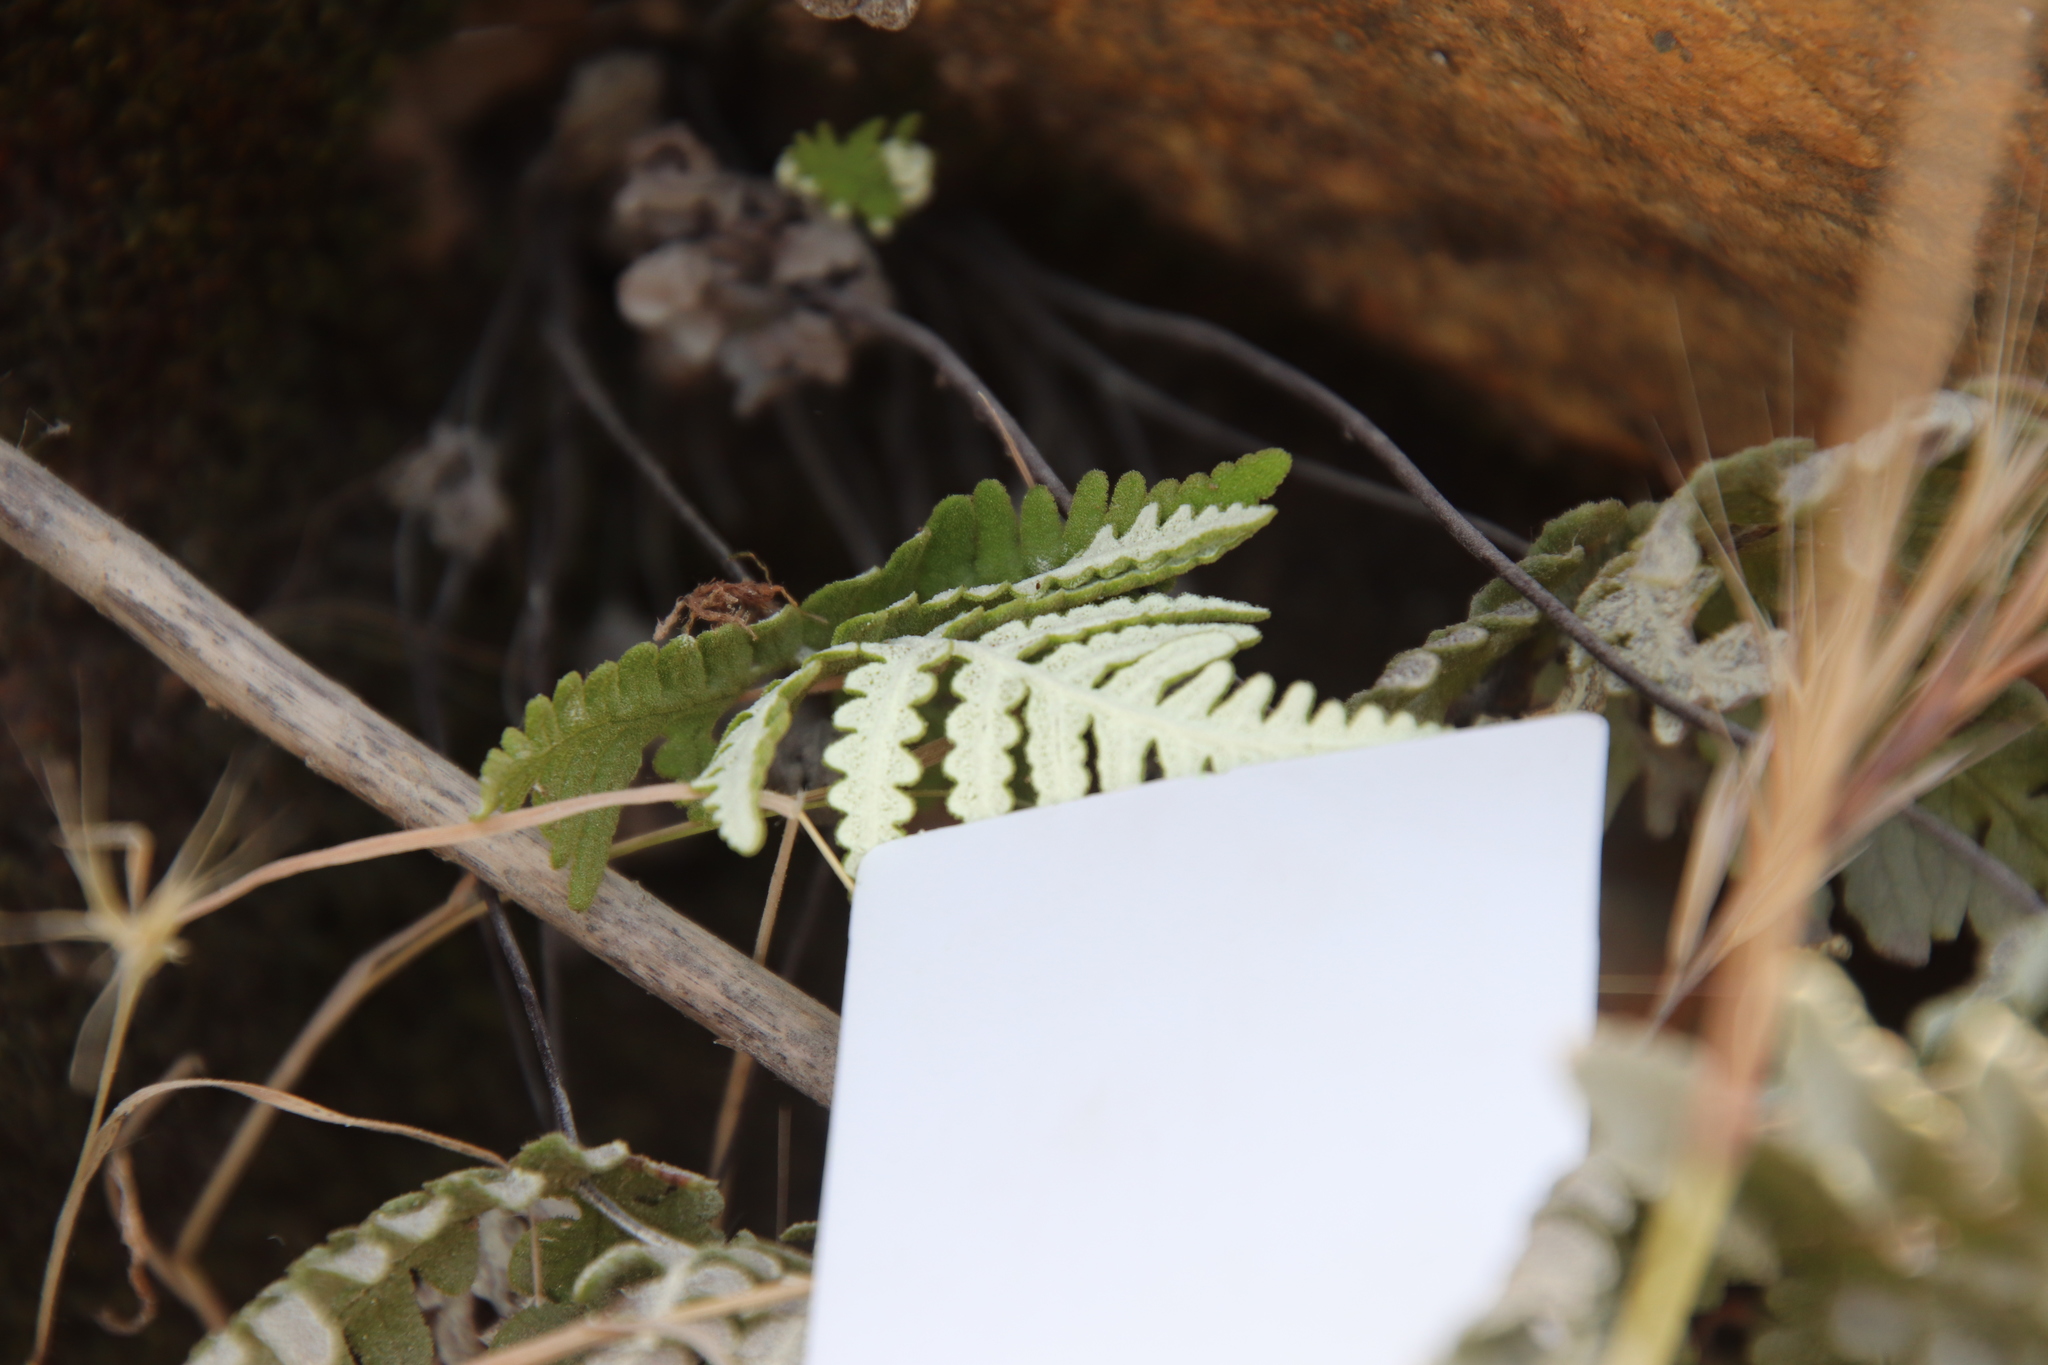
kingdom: Plantae
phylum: Tracheophyta
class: Polypodiopsida
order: Polypodiales
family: Pteridaceae
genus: Pentagramma
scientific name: Pentagramma glanduloviscida
